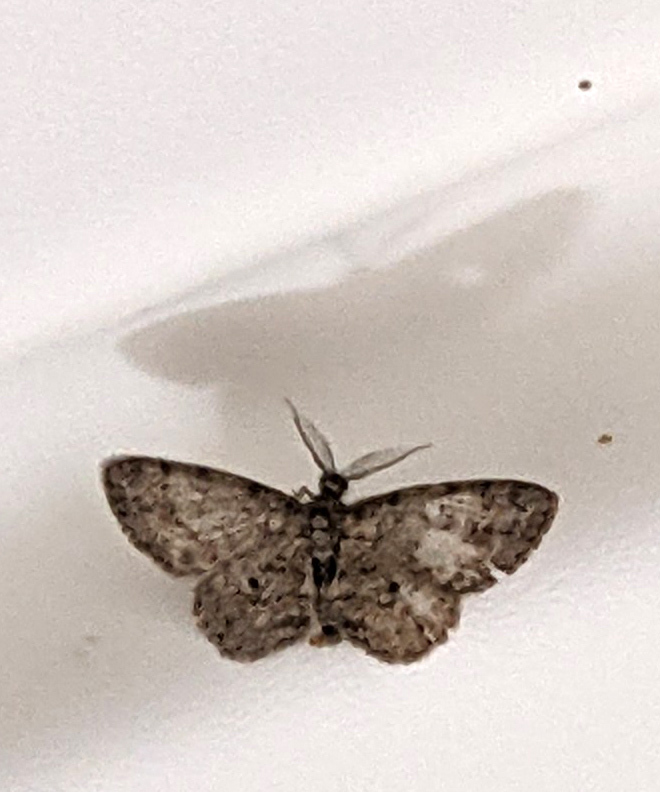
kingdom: Animalia
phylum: Arthropoda
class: Insecta
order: Lepidoptera
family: Geometridae
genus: Glenoides
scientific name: Glenoides texanaria
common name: Texas gray
